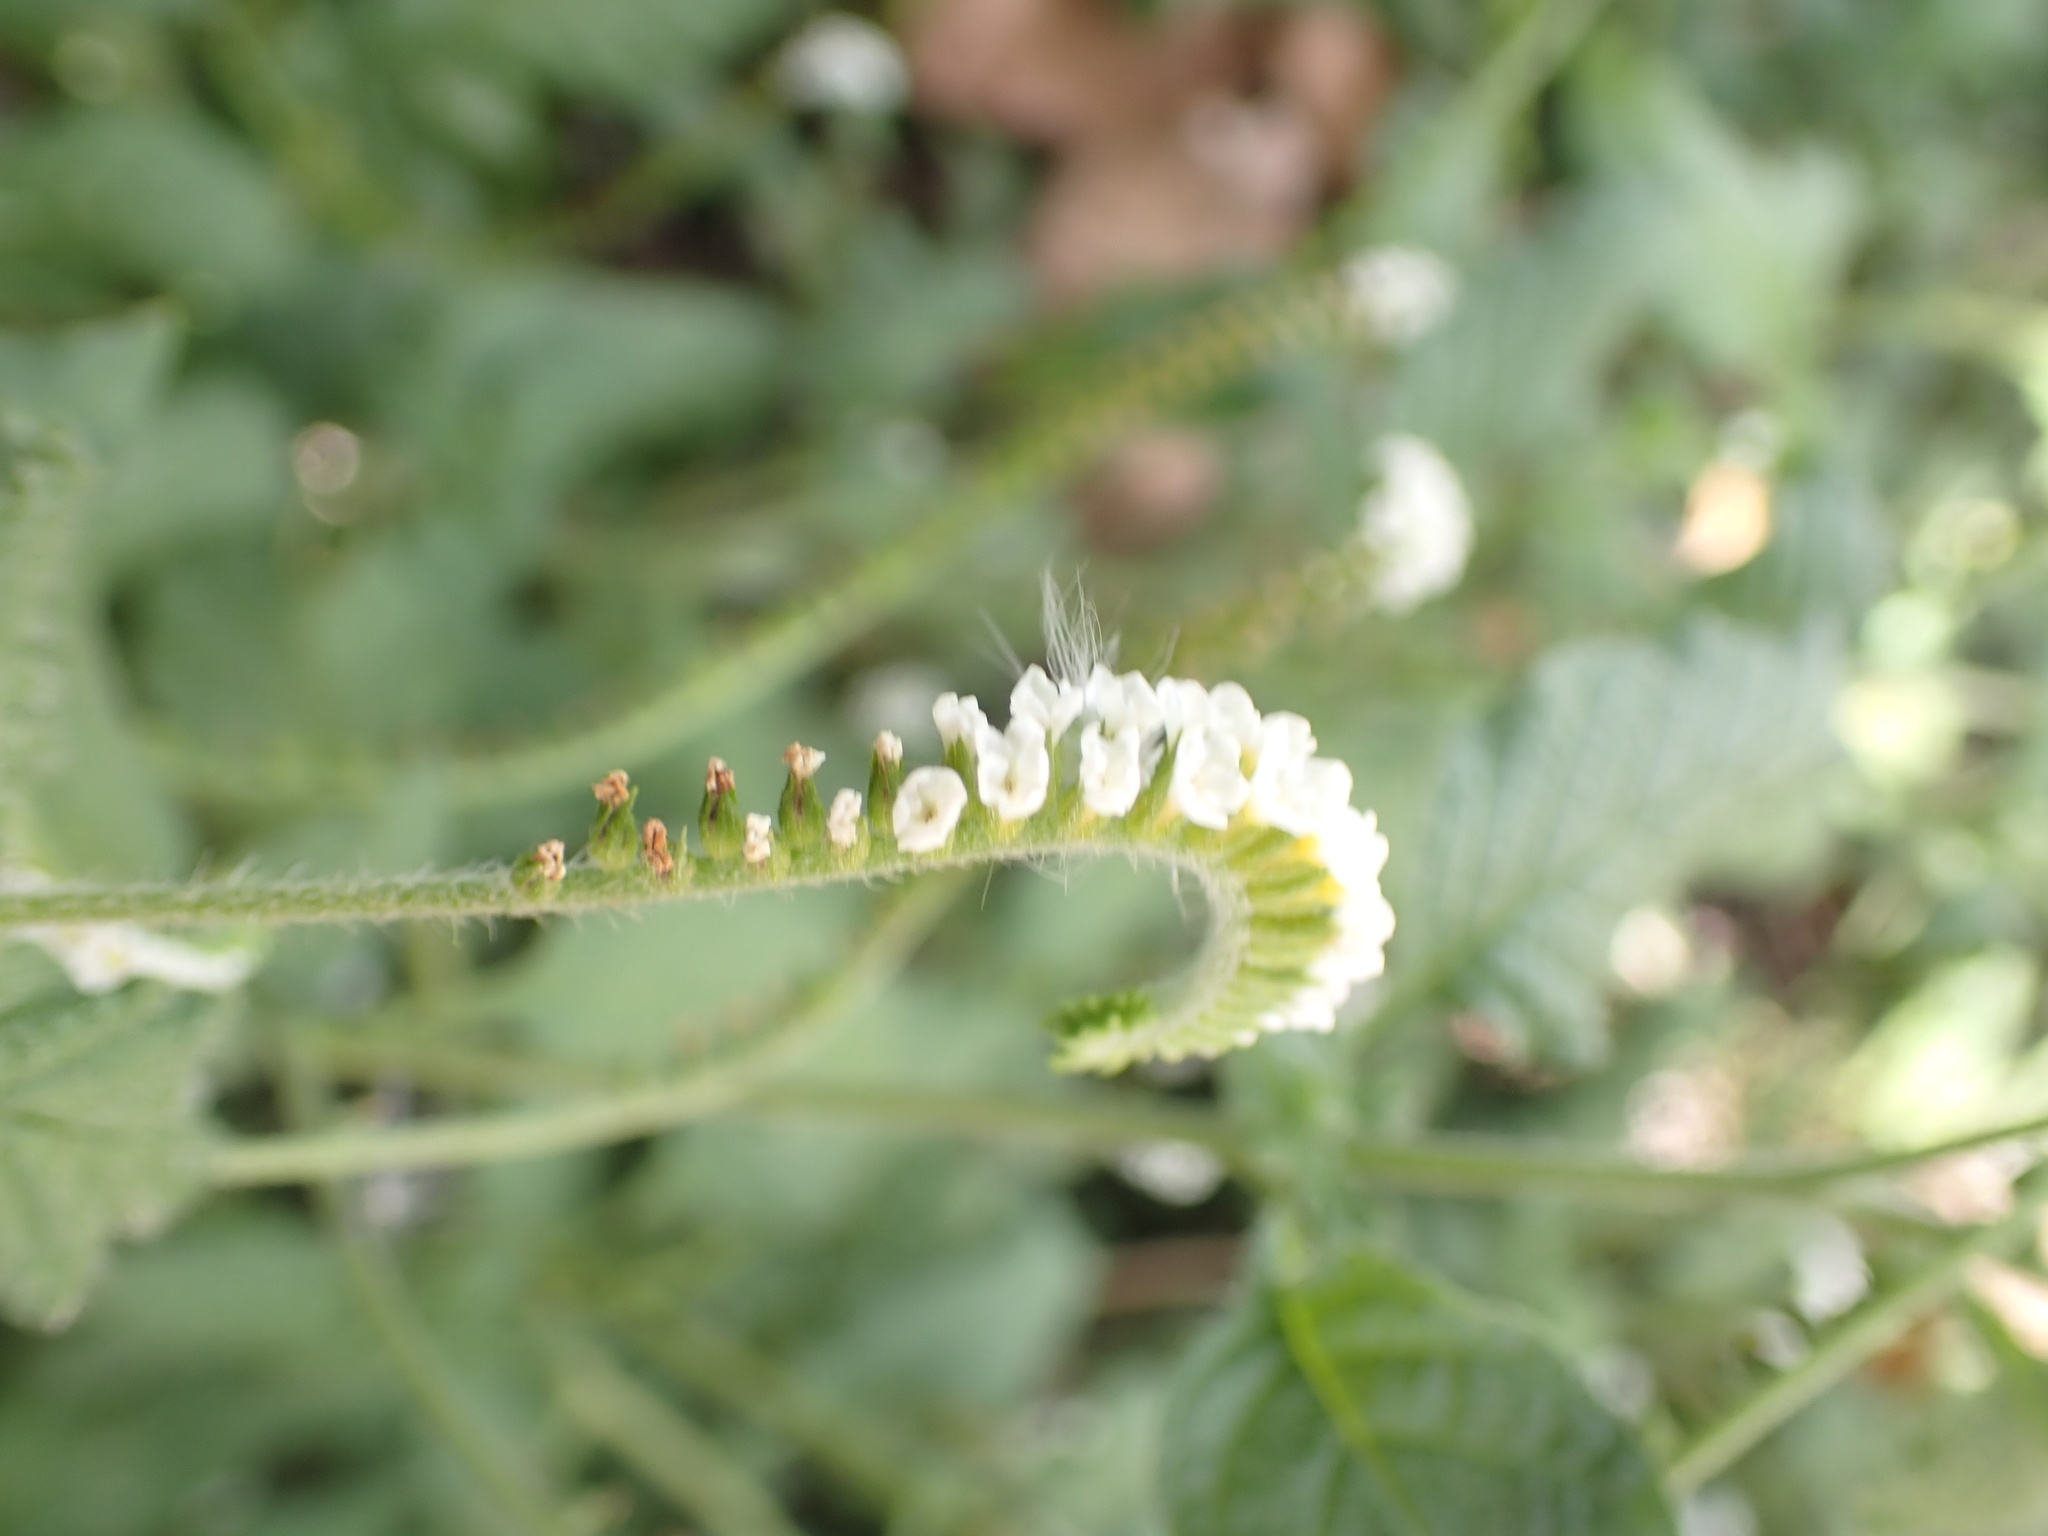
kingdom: Plantae
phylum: Tracheophyta
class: Magnoliopsida
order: Boraginales
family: Heliotropiaceae
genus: Heliotropium
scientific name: Heliotropium angiospermum
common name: Eye bright
